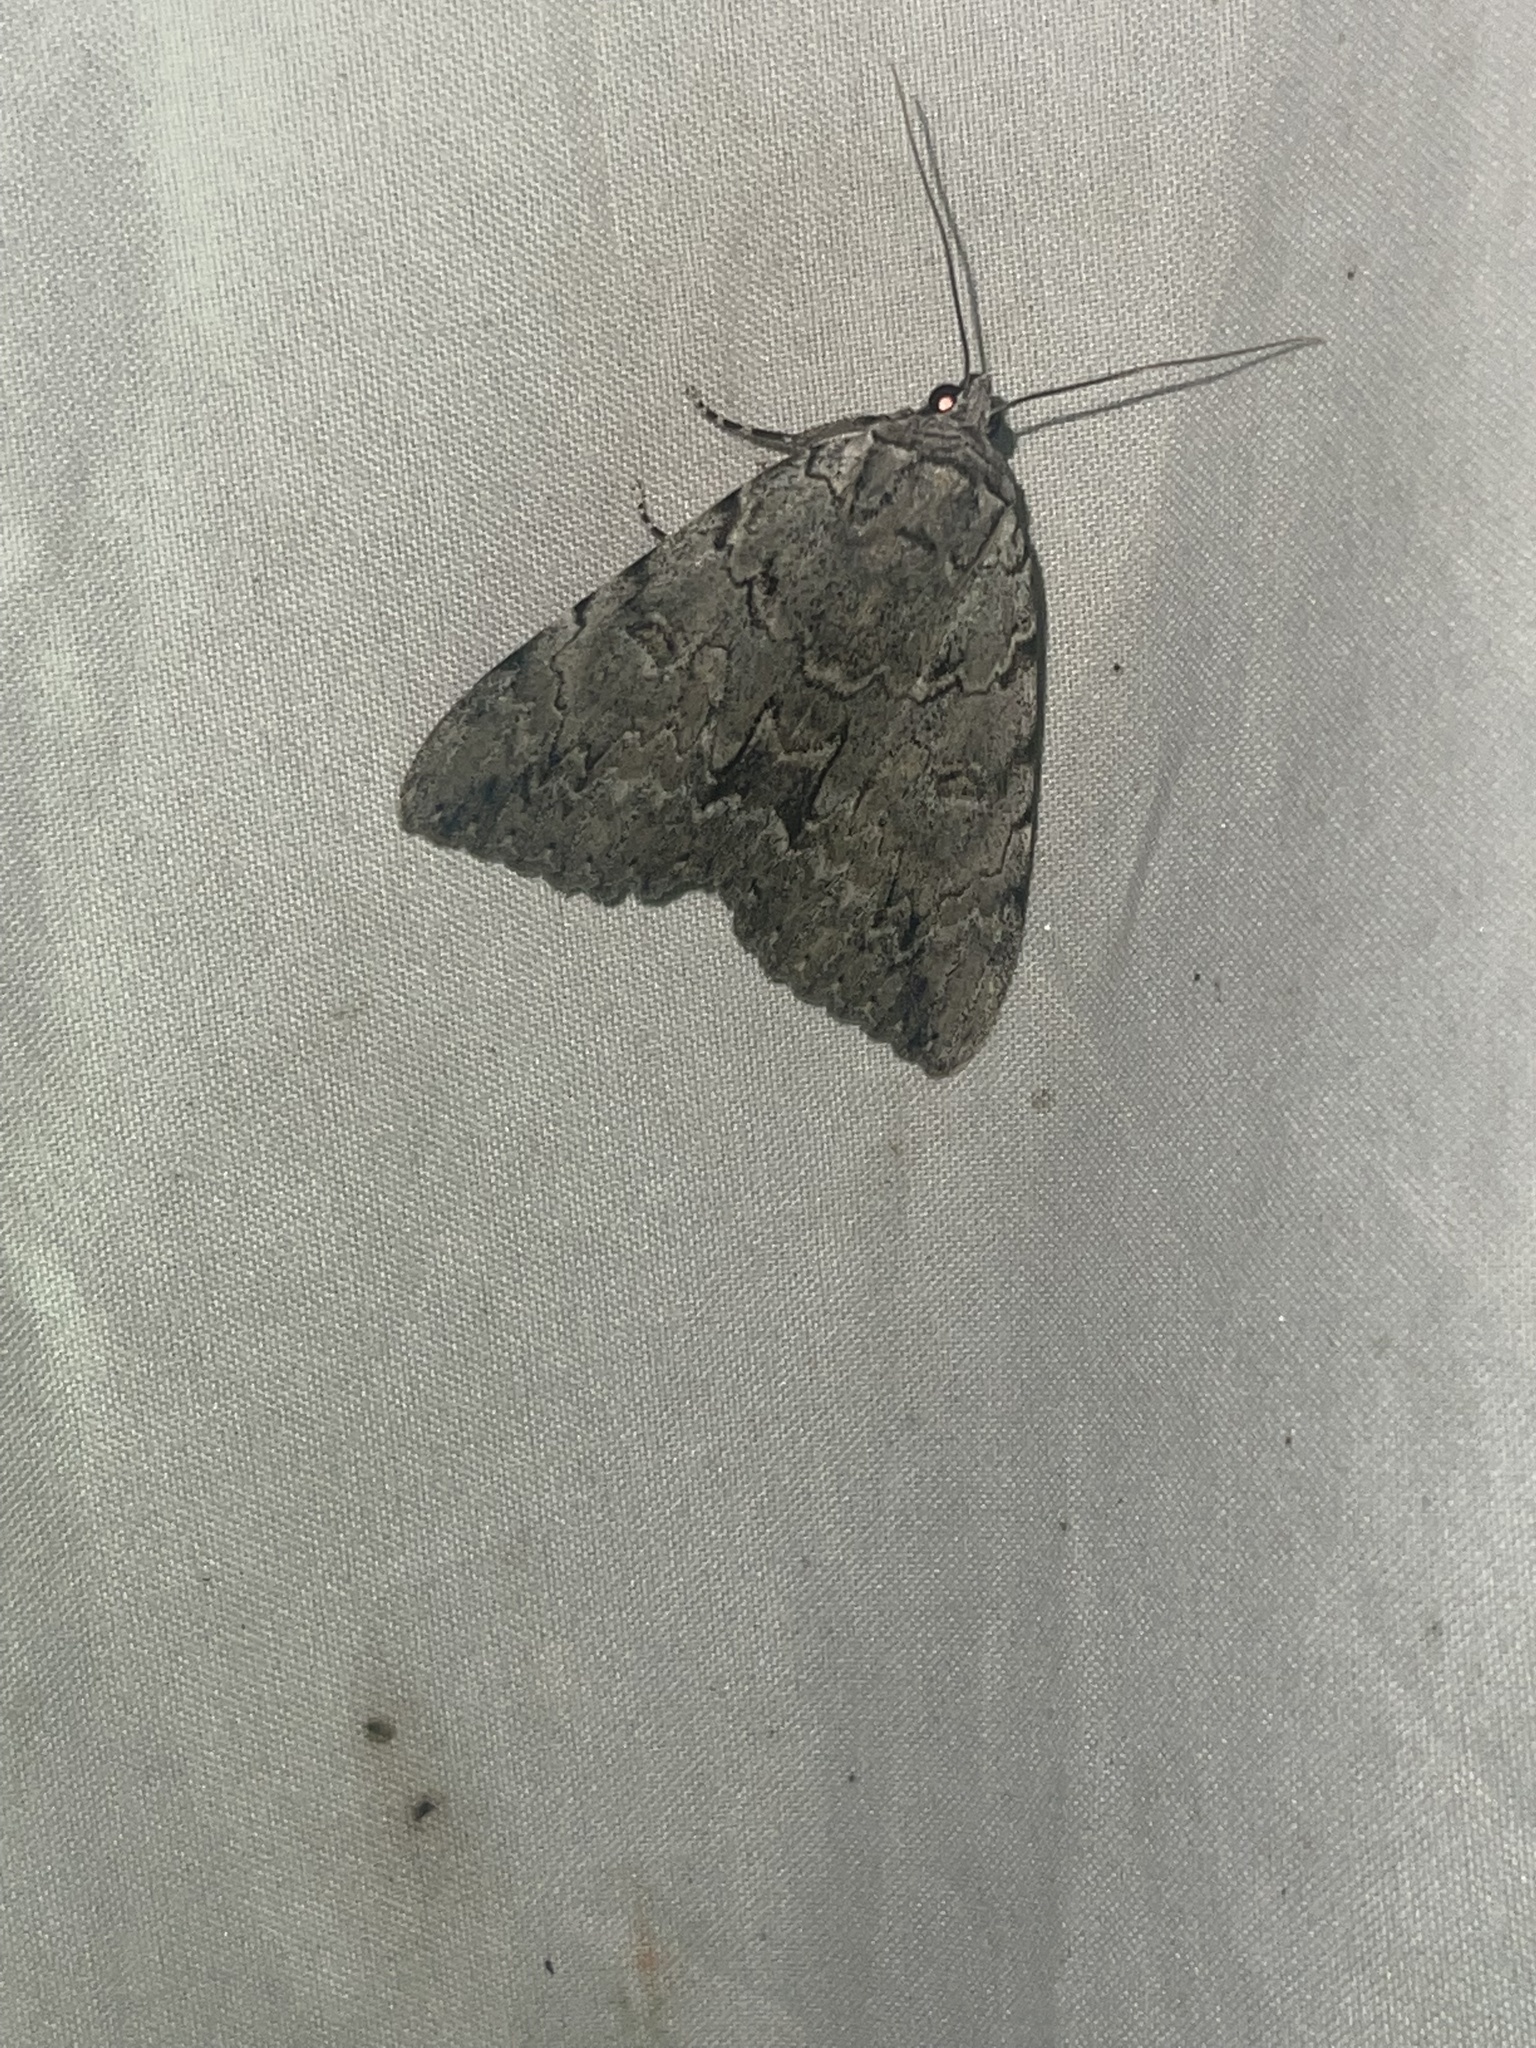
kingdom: Animalia
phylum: Arthropoda
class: Insecta
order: Lepidoptera
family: Erebidae
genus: Catocala
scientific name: Catocala habilis
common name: Habilis underwing
